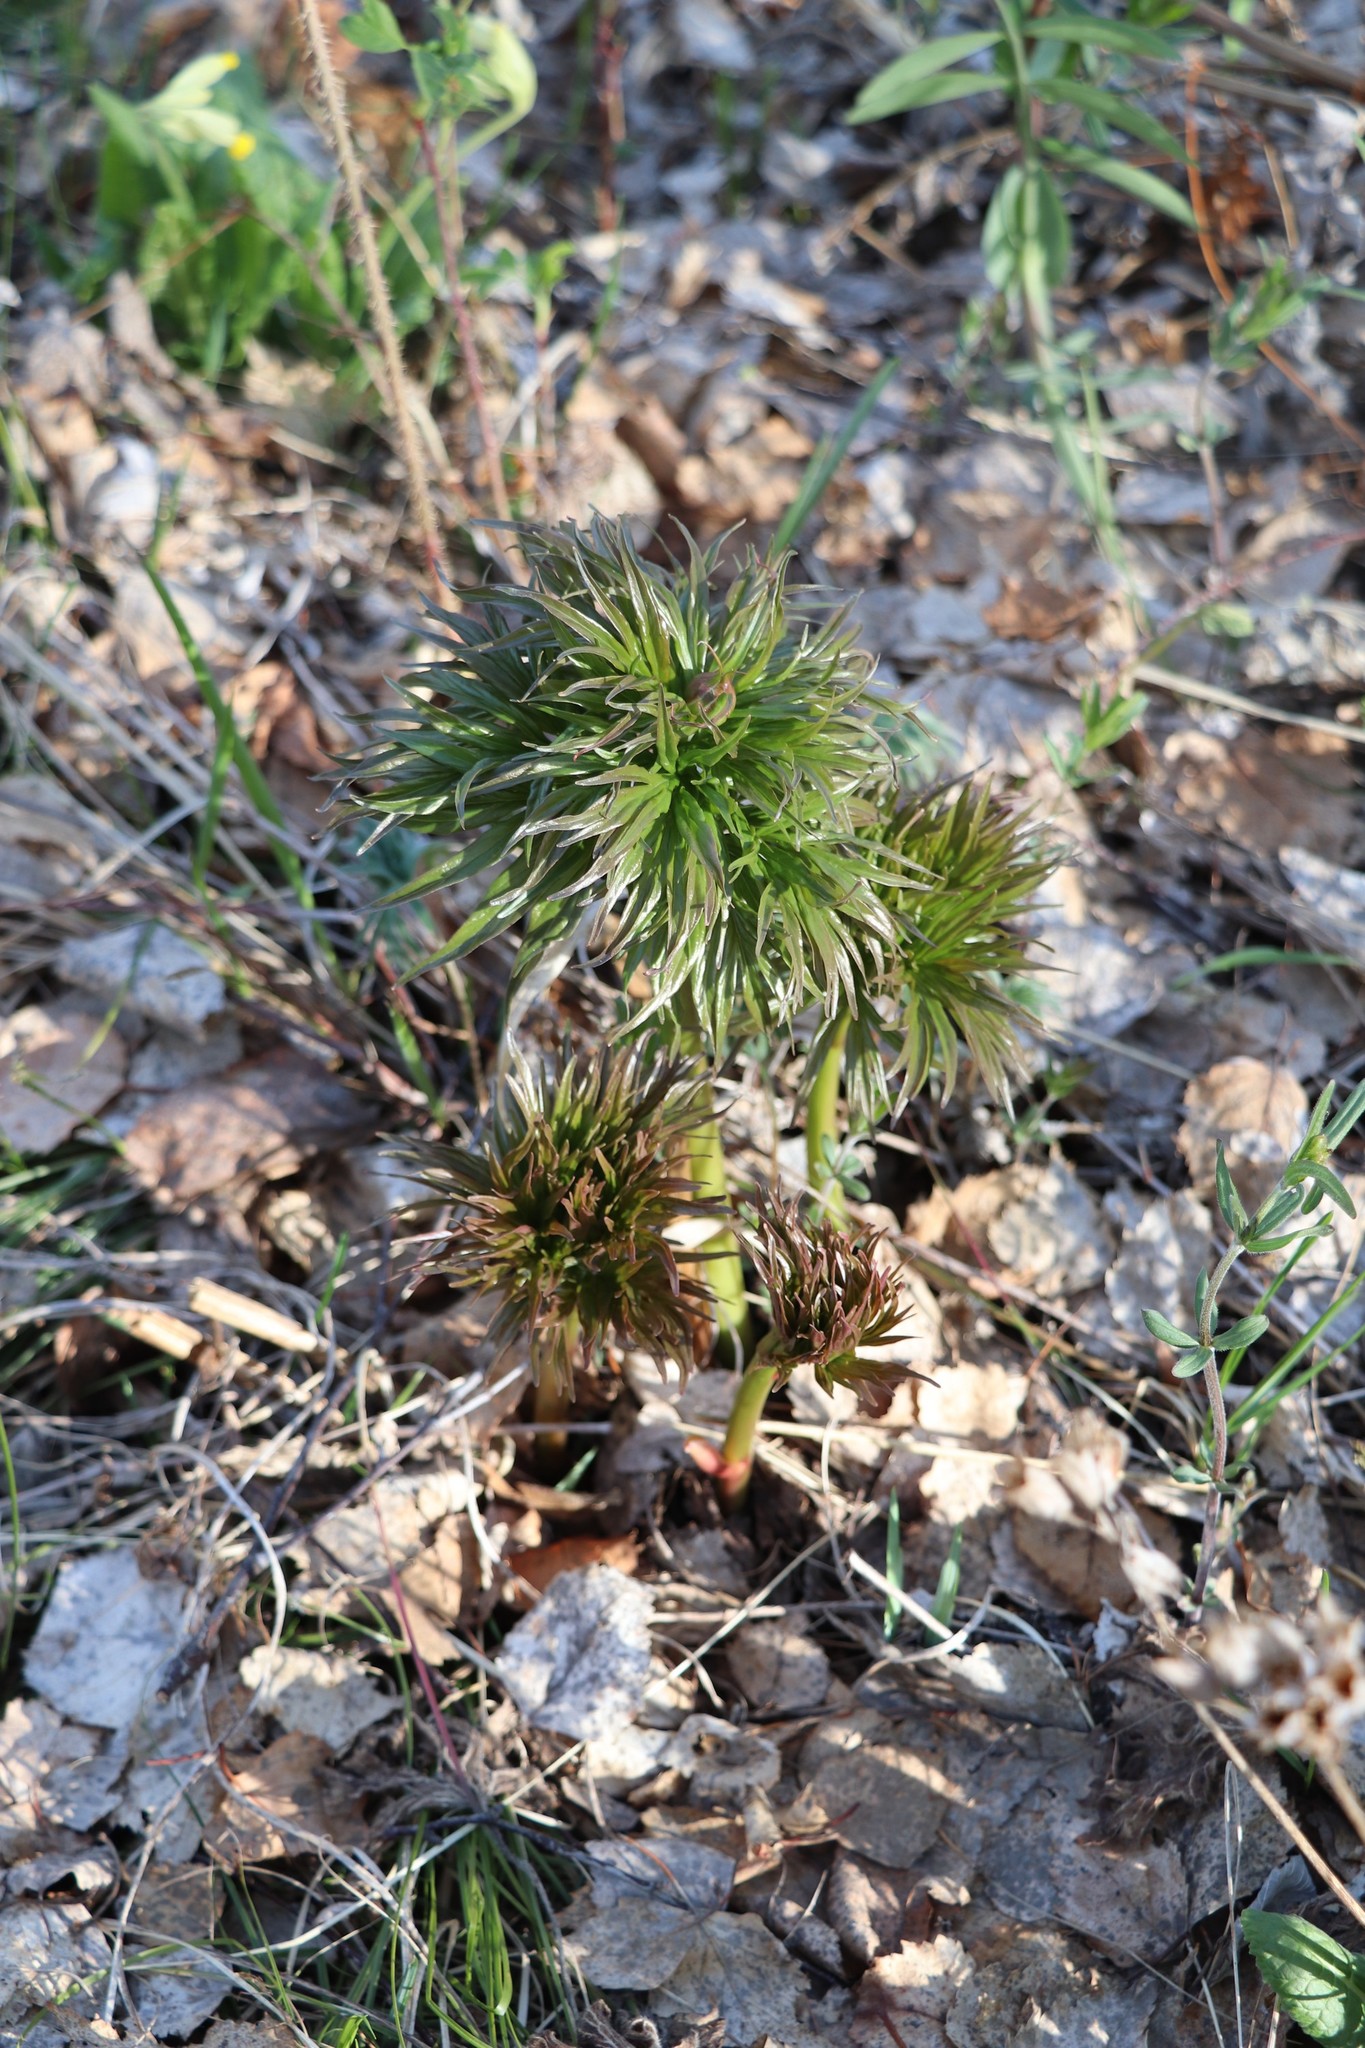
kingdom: Plantae
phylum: Tracheophyta
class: Magnoliopsida
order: Saxifragales
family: Paeoniaceae
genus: Paeonia
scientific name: Paeonia anomala
